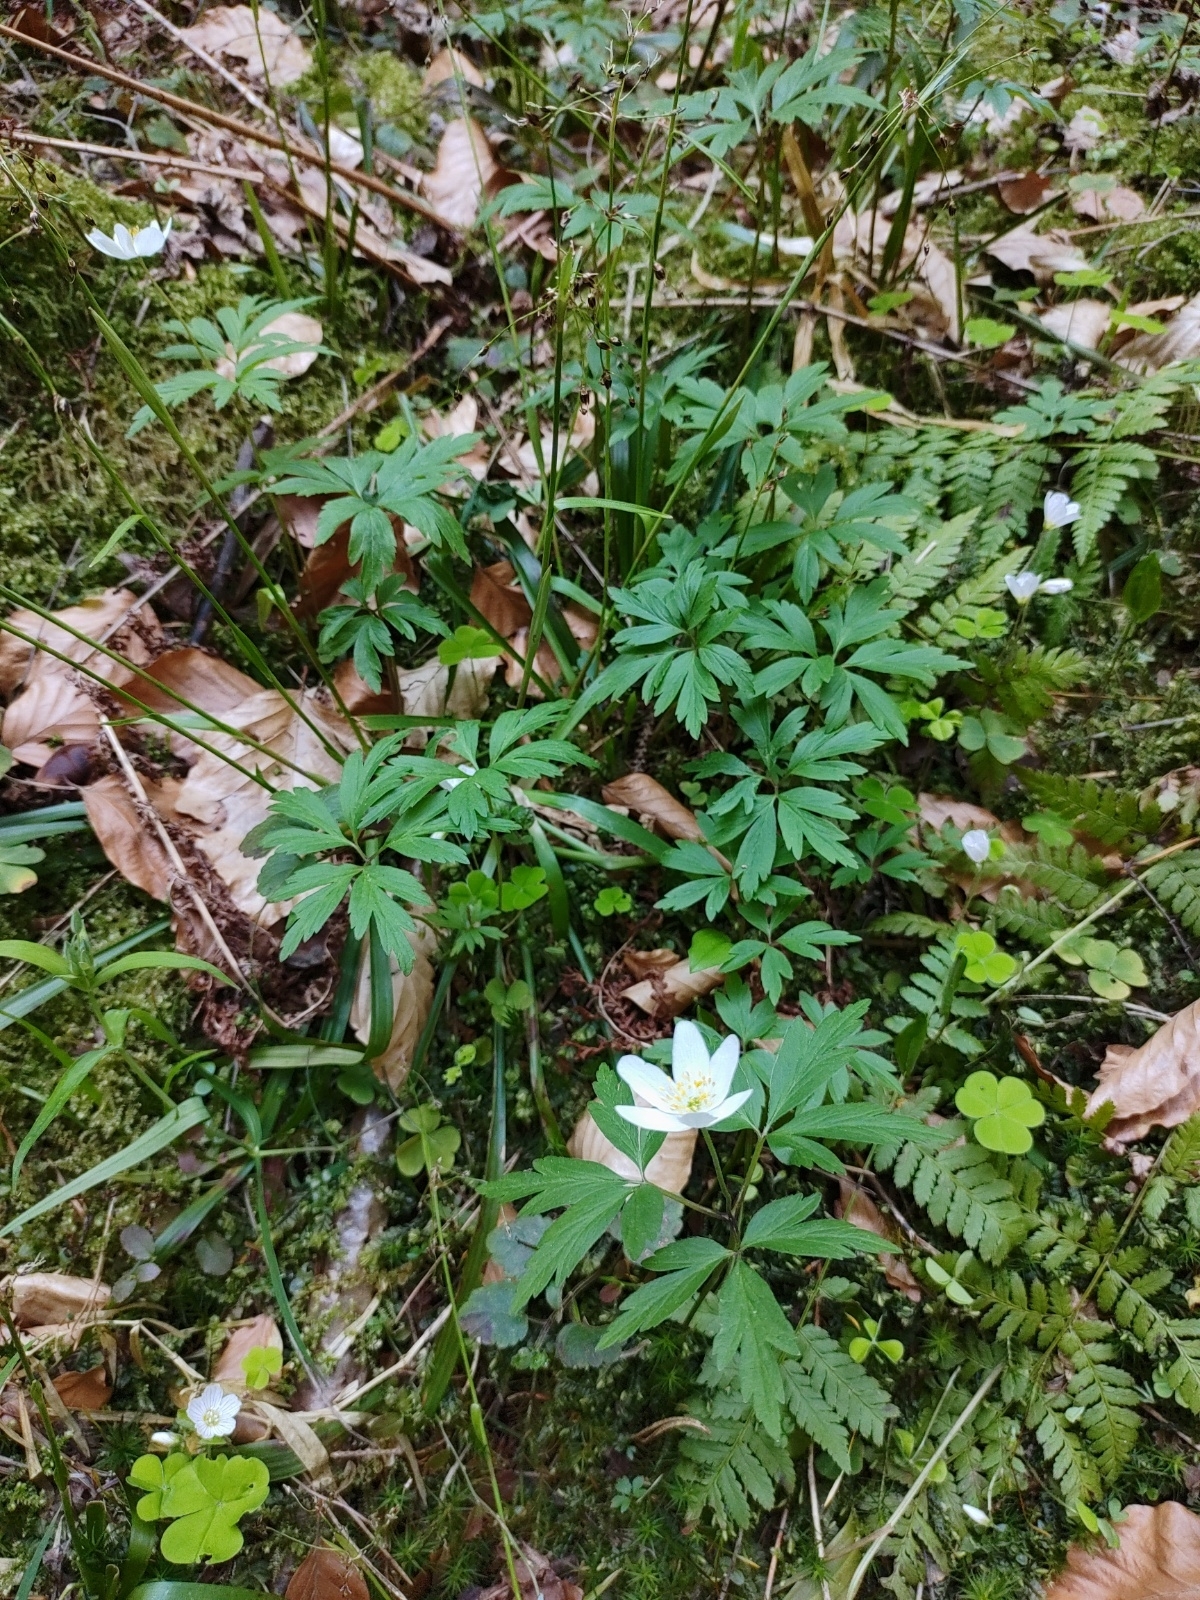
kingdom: Plantae
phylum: Tracheophyta
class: Magnoliopsida
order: Ranunculales
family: Ranunculaceae
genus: Anemone
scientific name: Anemone nemorosa
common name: Wood anemone
